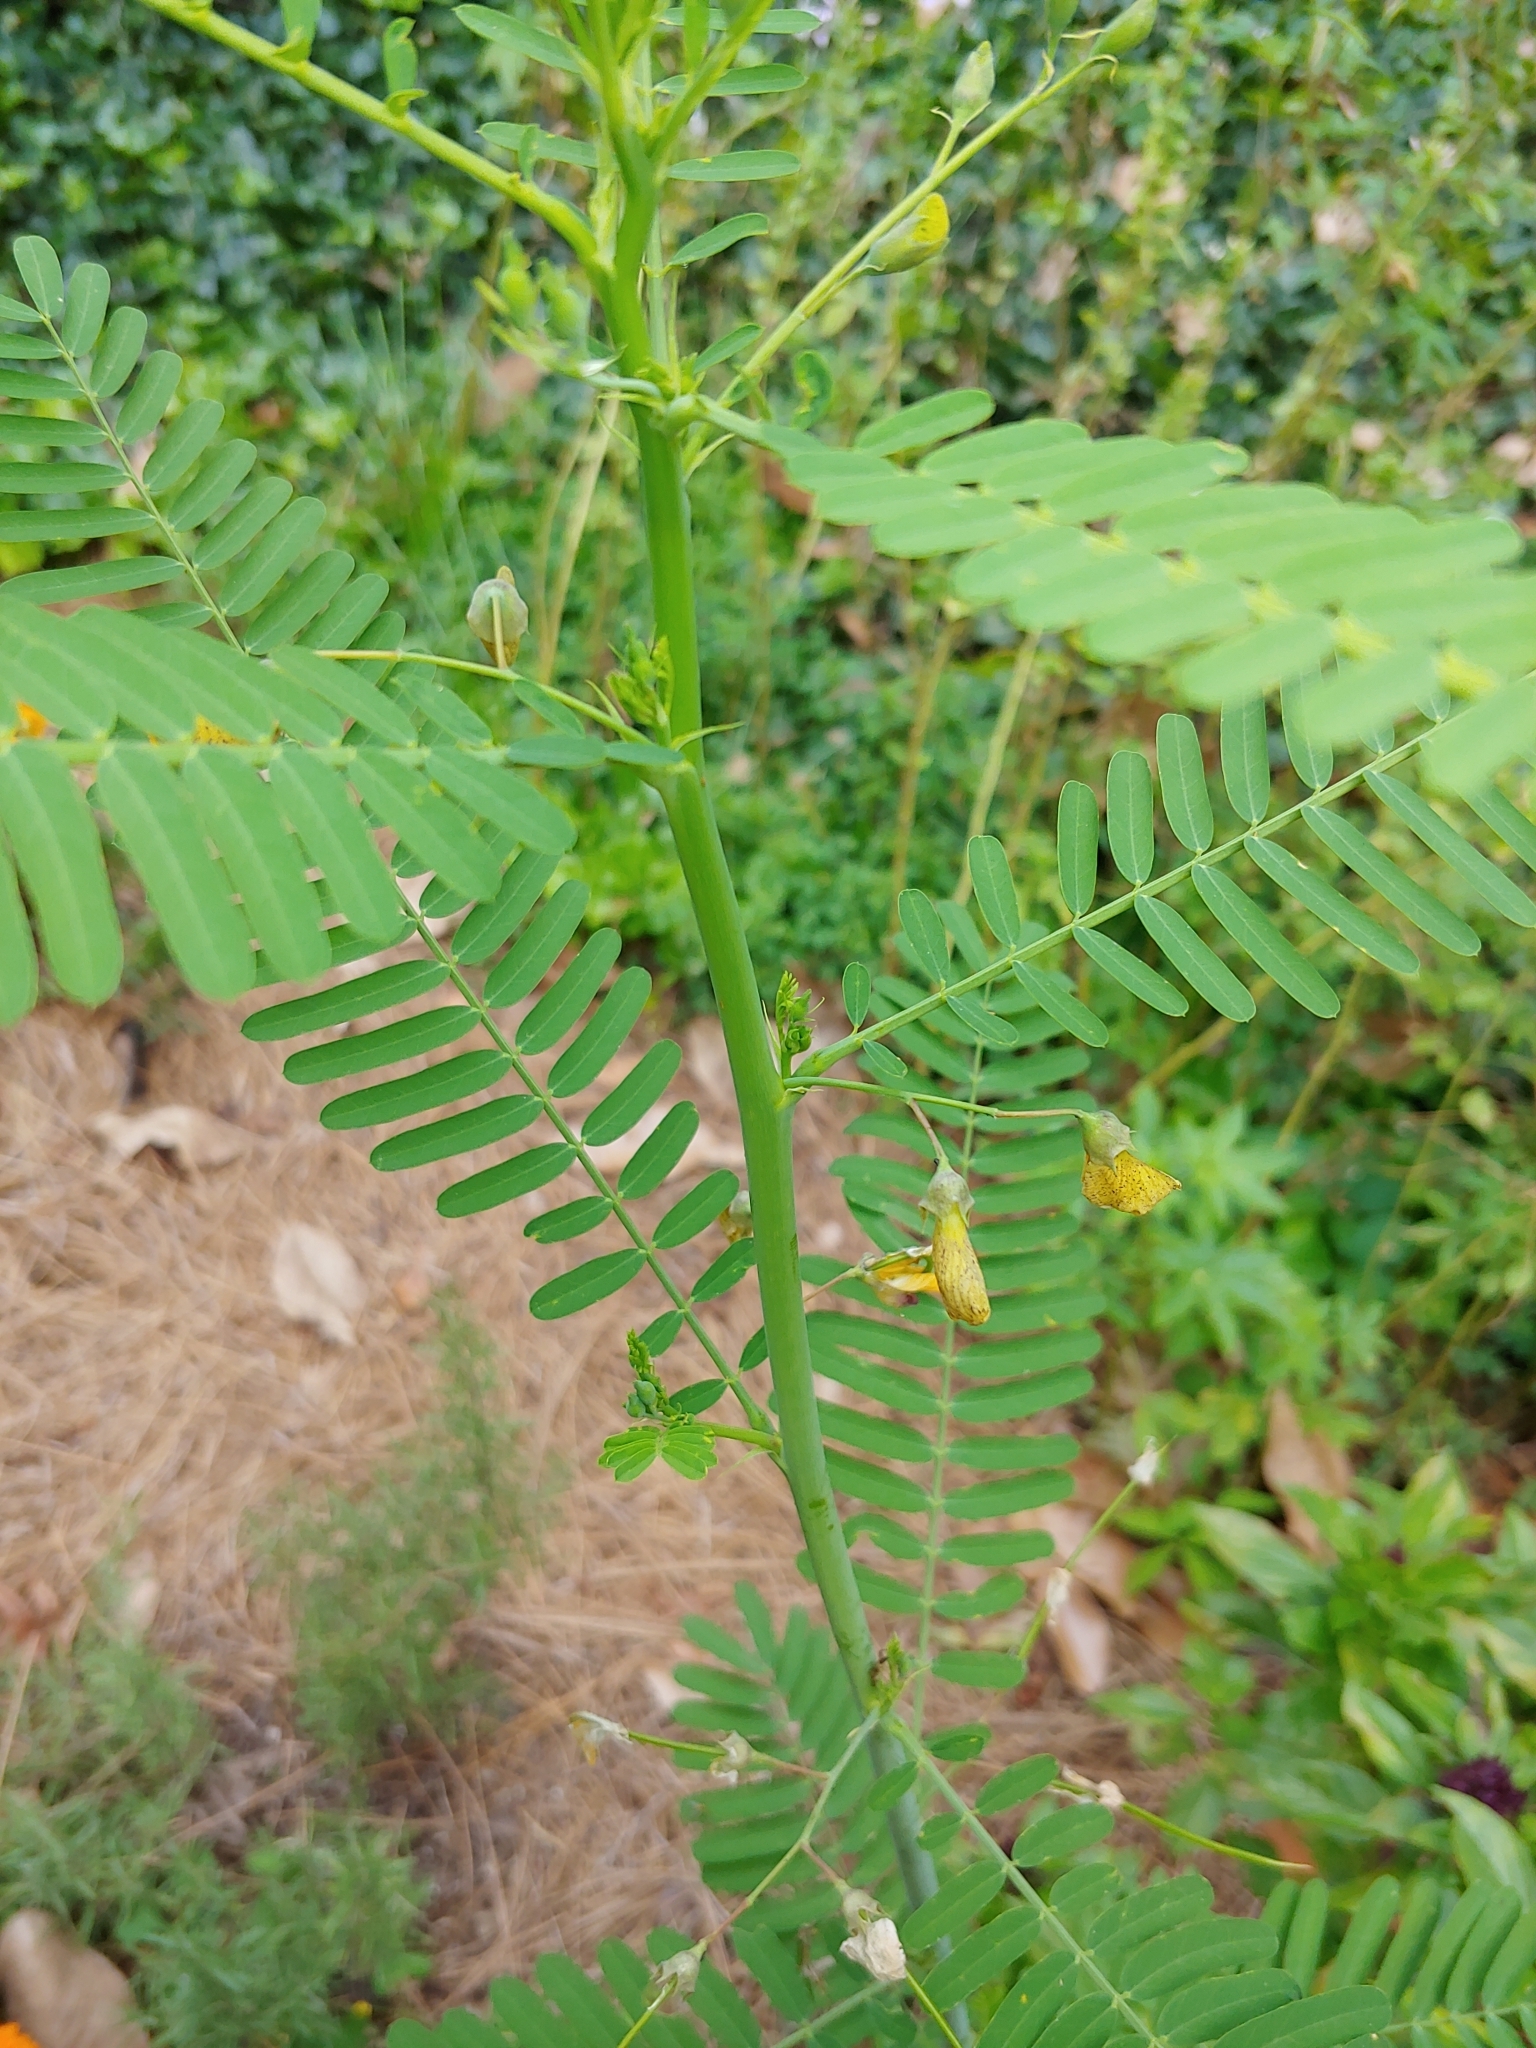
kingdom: Plantae
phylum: Tracheophyta
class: Magnoliopsida
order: Fabales
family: Fabaceae
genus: Sesbania
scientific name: Sesbania herbacea
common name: Bigpod sesbania
